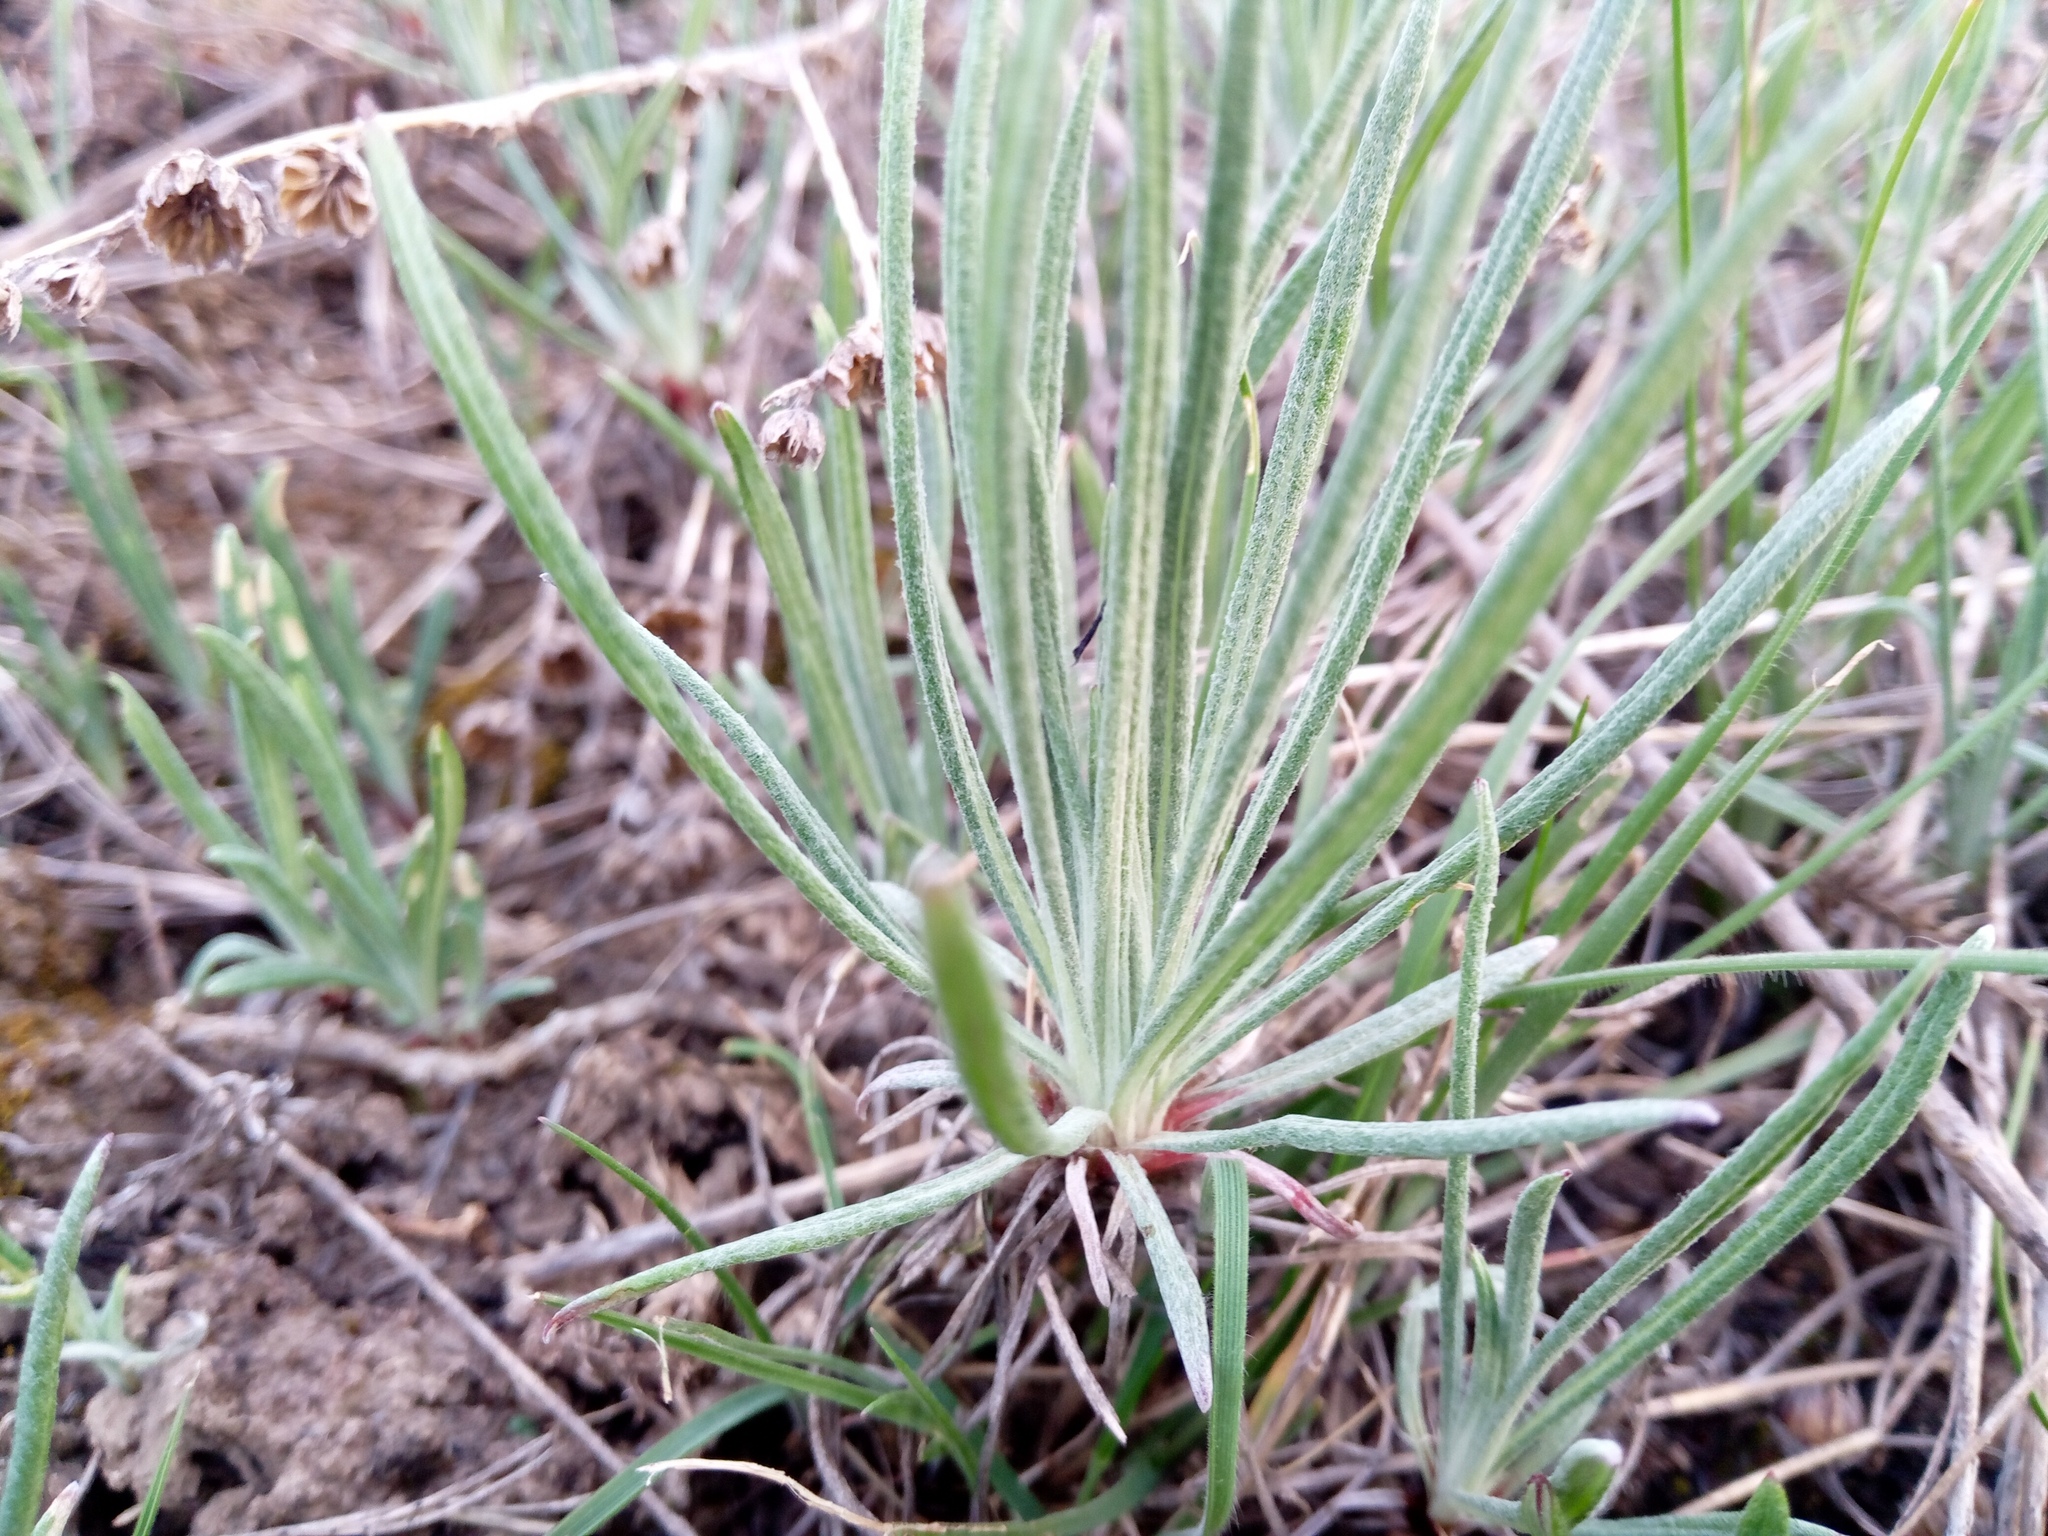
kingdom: Plantae
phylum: Tracheophyta
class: Magnoliopsida
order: Asterales
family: Asteraceae
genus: Jurinea
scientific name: Jurinea stoechadifolia
